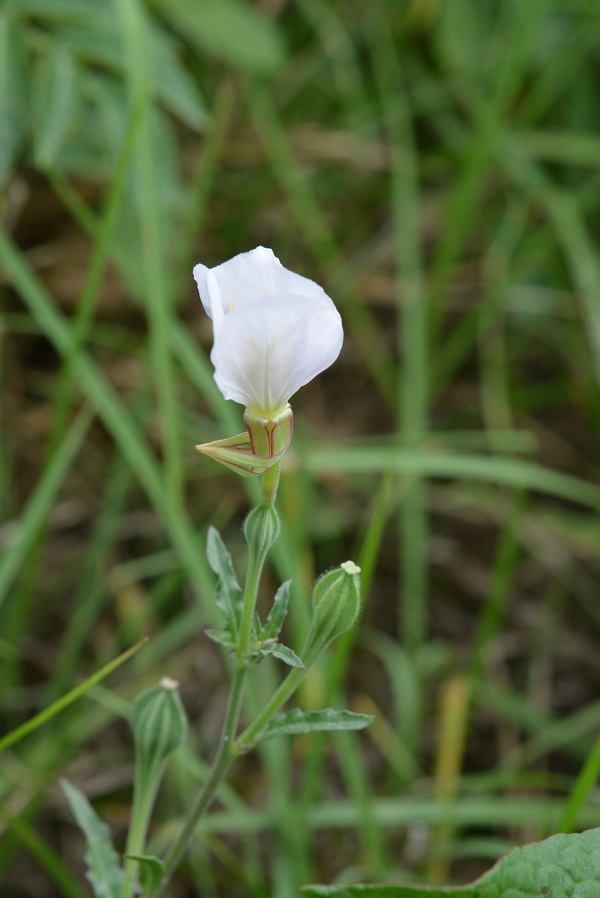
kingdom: Plantae
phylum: Tracheophyta
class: Magnoliopsida
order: Myrtales
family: Onagraceae
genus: Oenothera
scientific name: Oenothera kunthiana
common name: Kunth's evening-primrose
